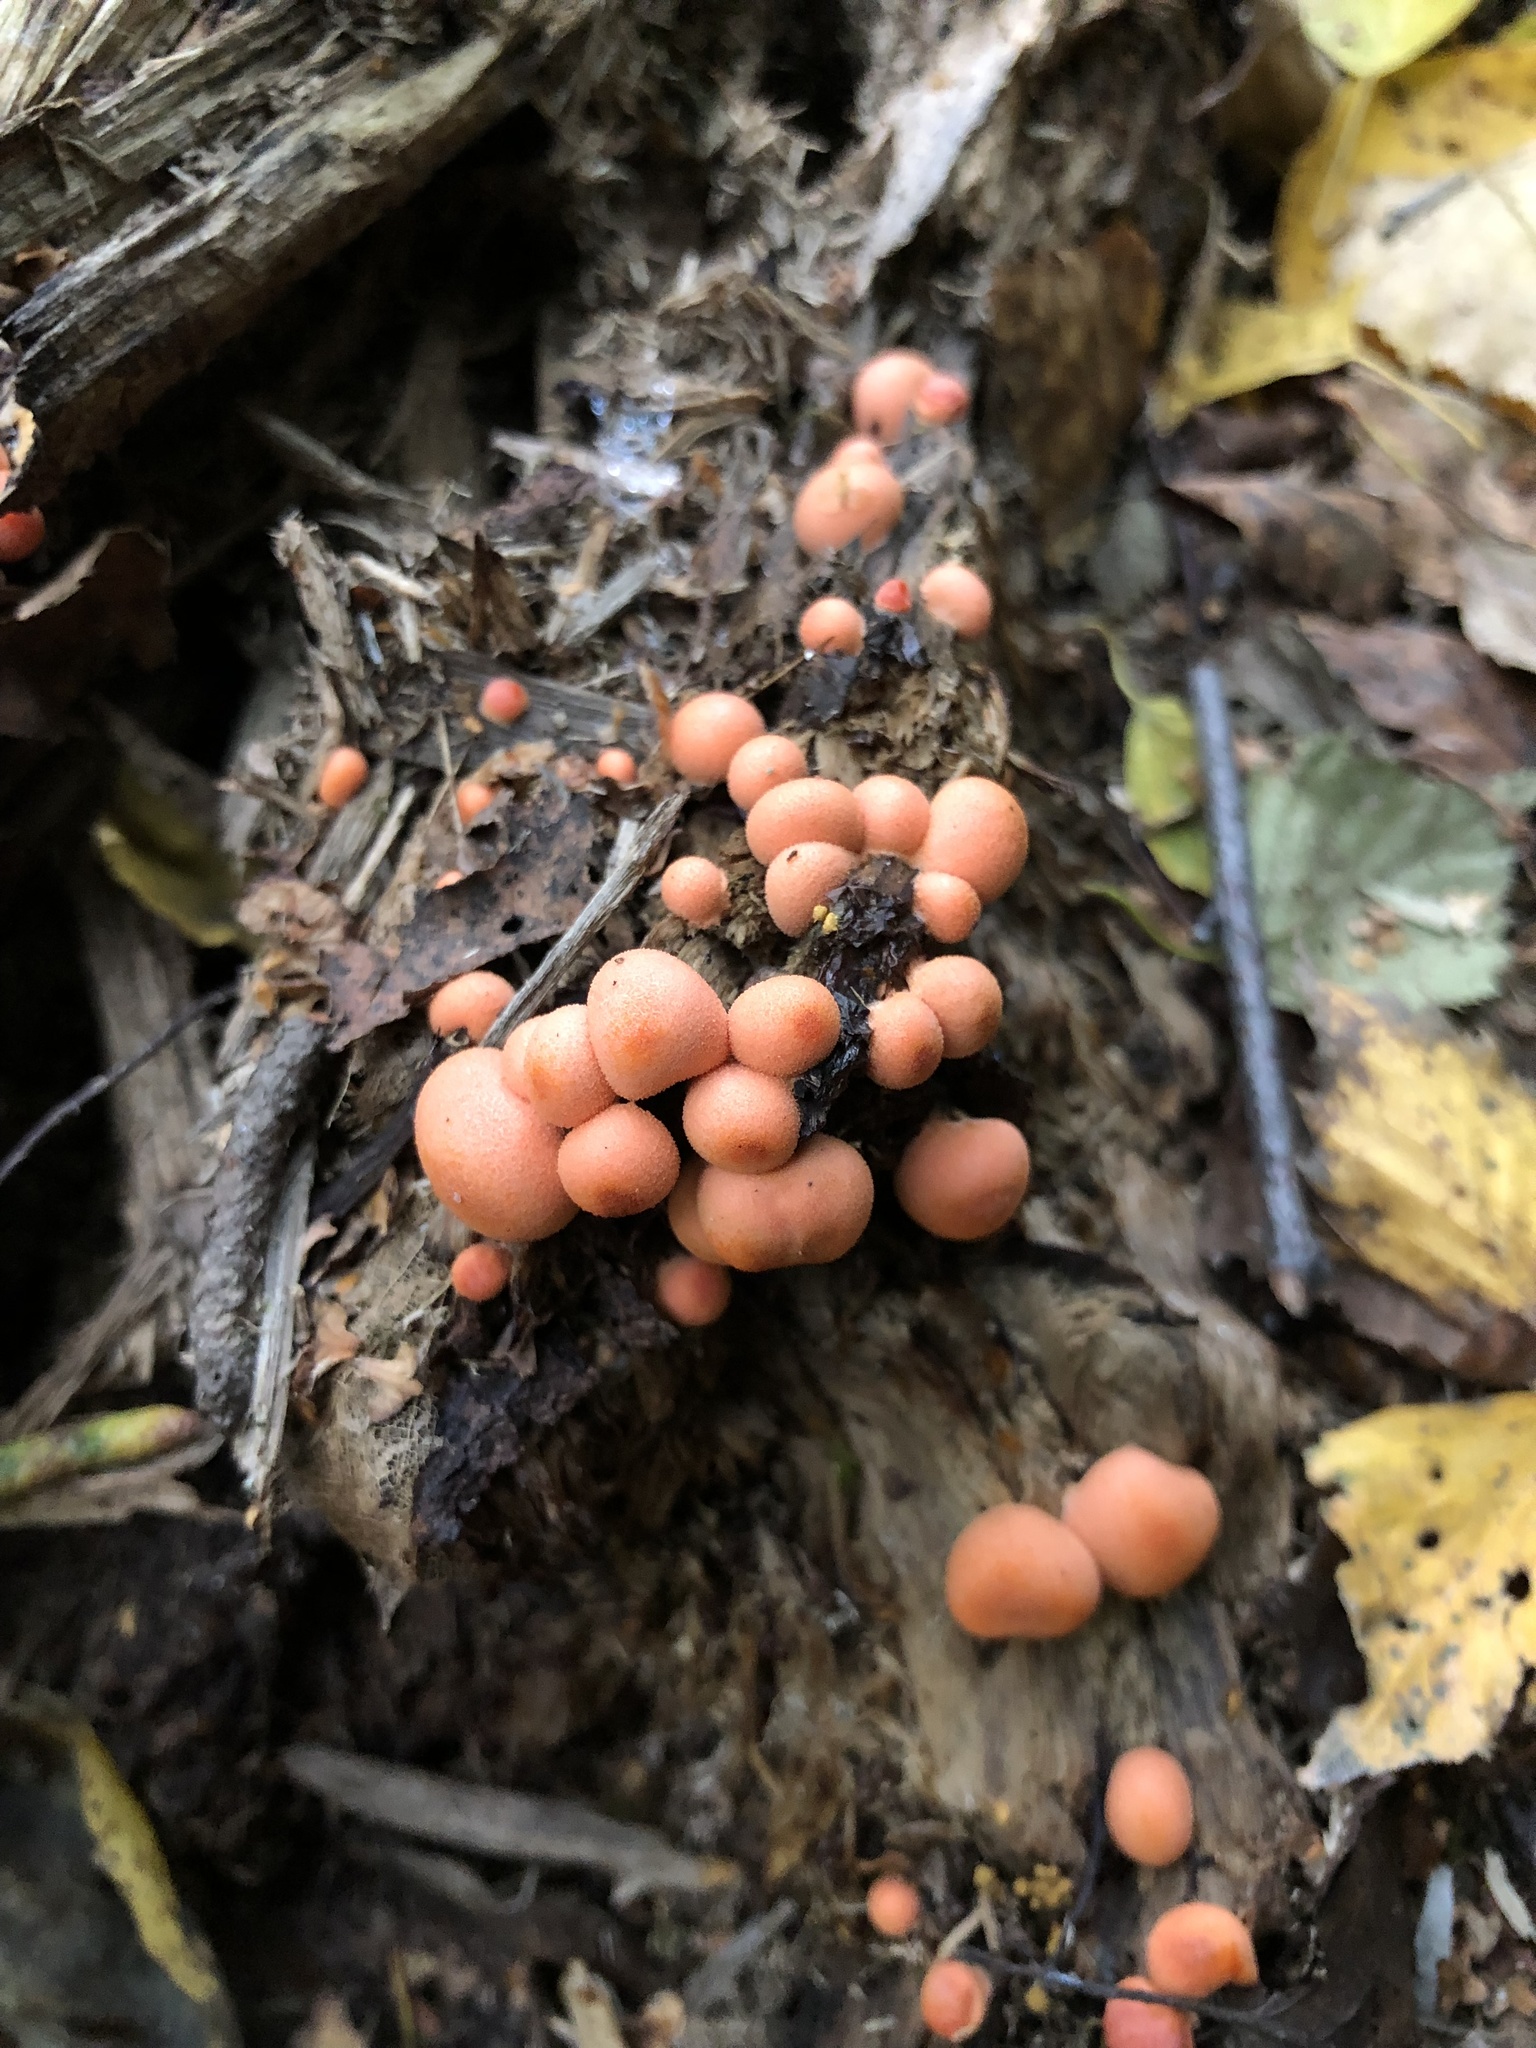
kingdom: Protozoa
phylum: Mycetozoa
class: Myxomycetes
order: Cribrariales
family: Tubiferaceae
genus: Lycogala
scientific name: Lycogala epidendrum
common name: Wolf's milk
